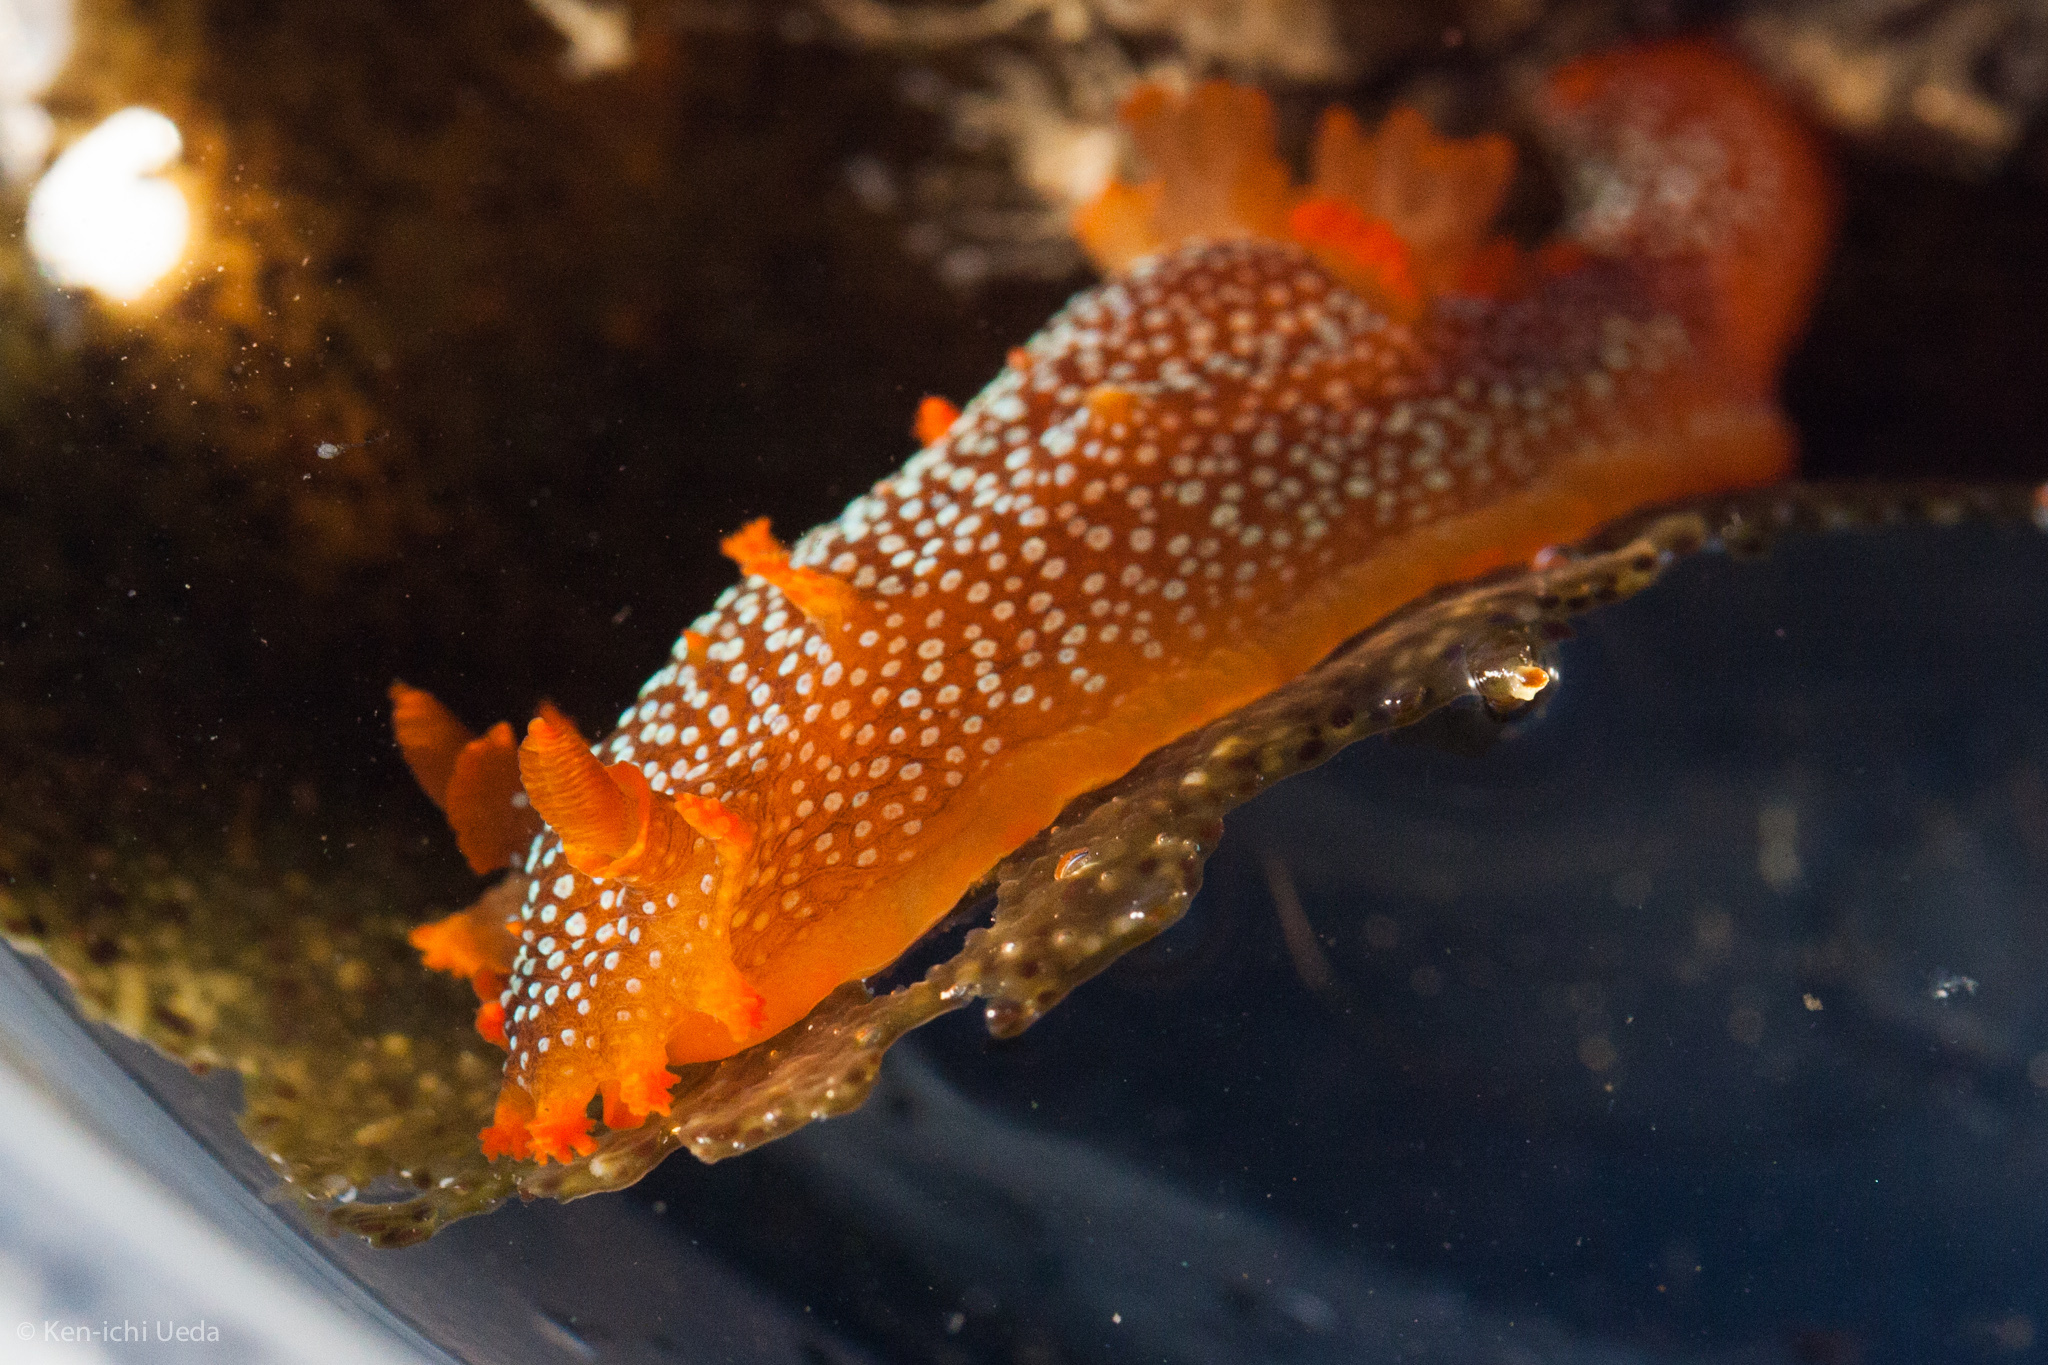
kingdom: Animalia
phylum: Mollusca
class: Gastropoda
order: Nudibranchia
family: Polyceridae
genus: Triopha
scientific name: Triopha maculata
